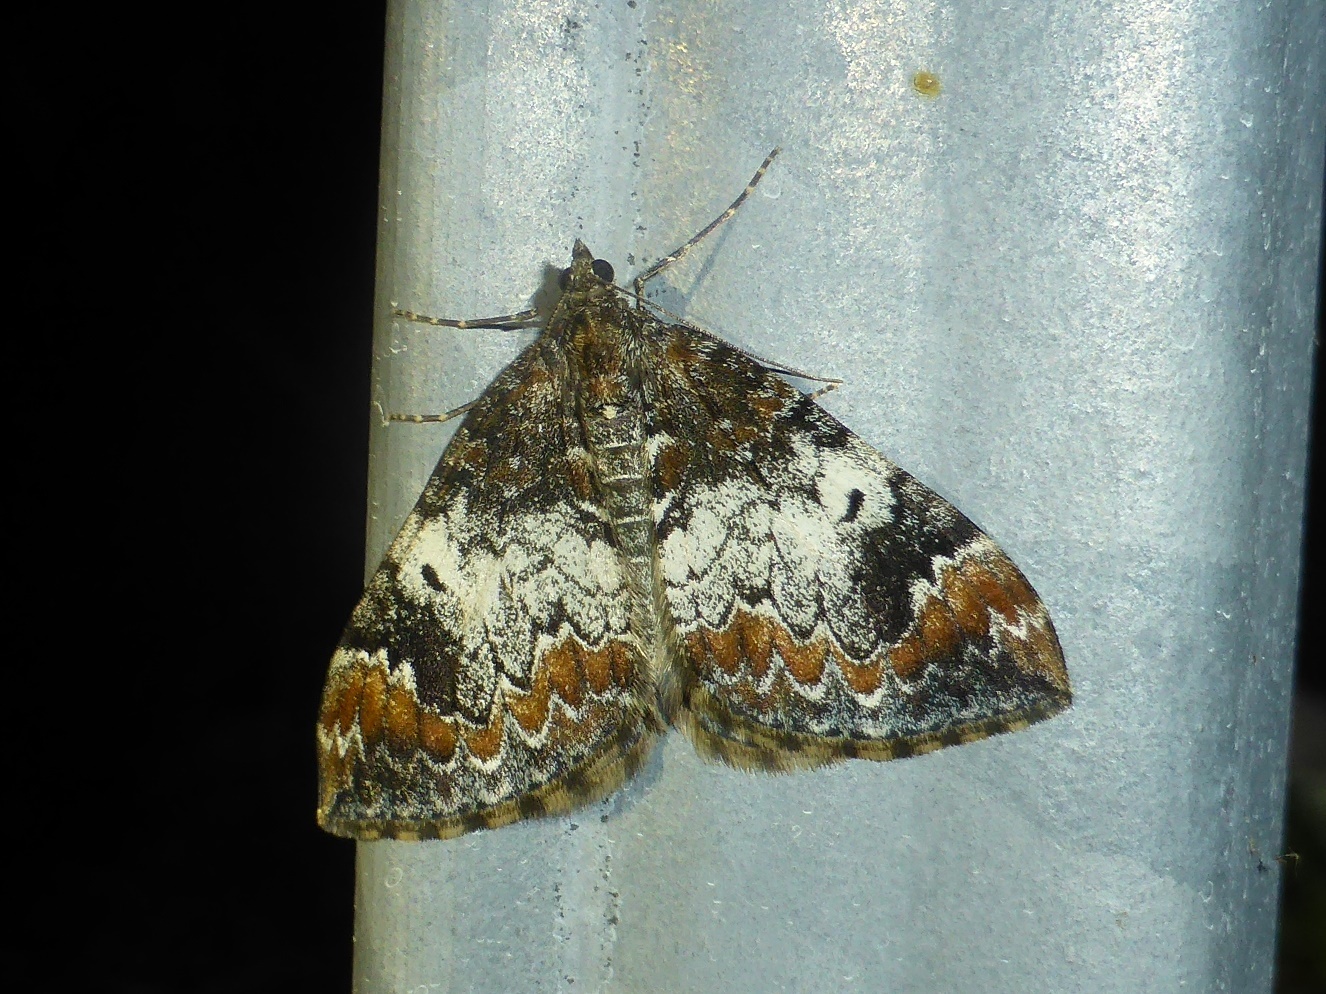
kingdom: Animalia
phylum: Arthropoda
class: Insecta
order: Lepidoptera
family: Geometridae
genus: Dysstroma
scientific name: Dysstroma truncata
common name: Common marbled carpet
